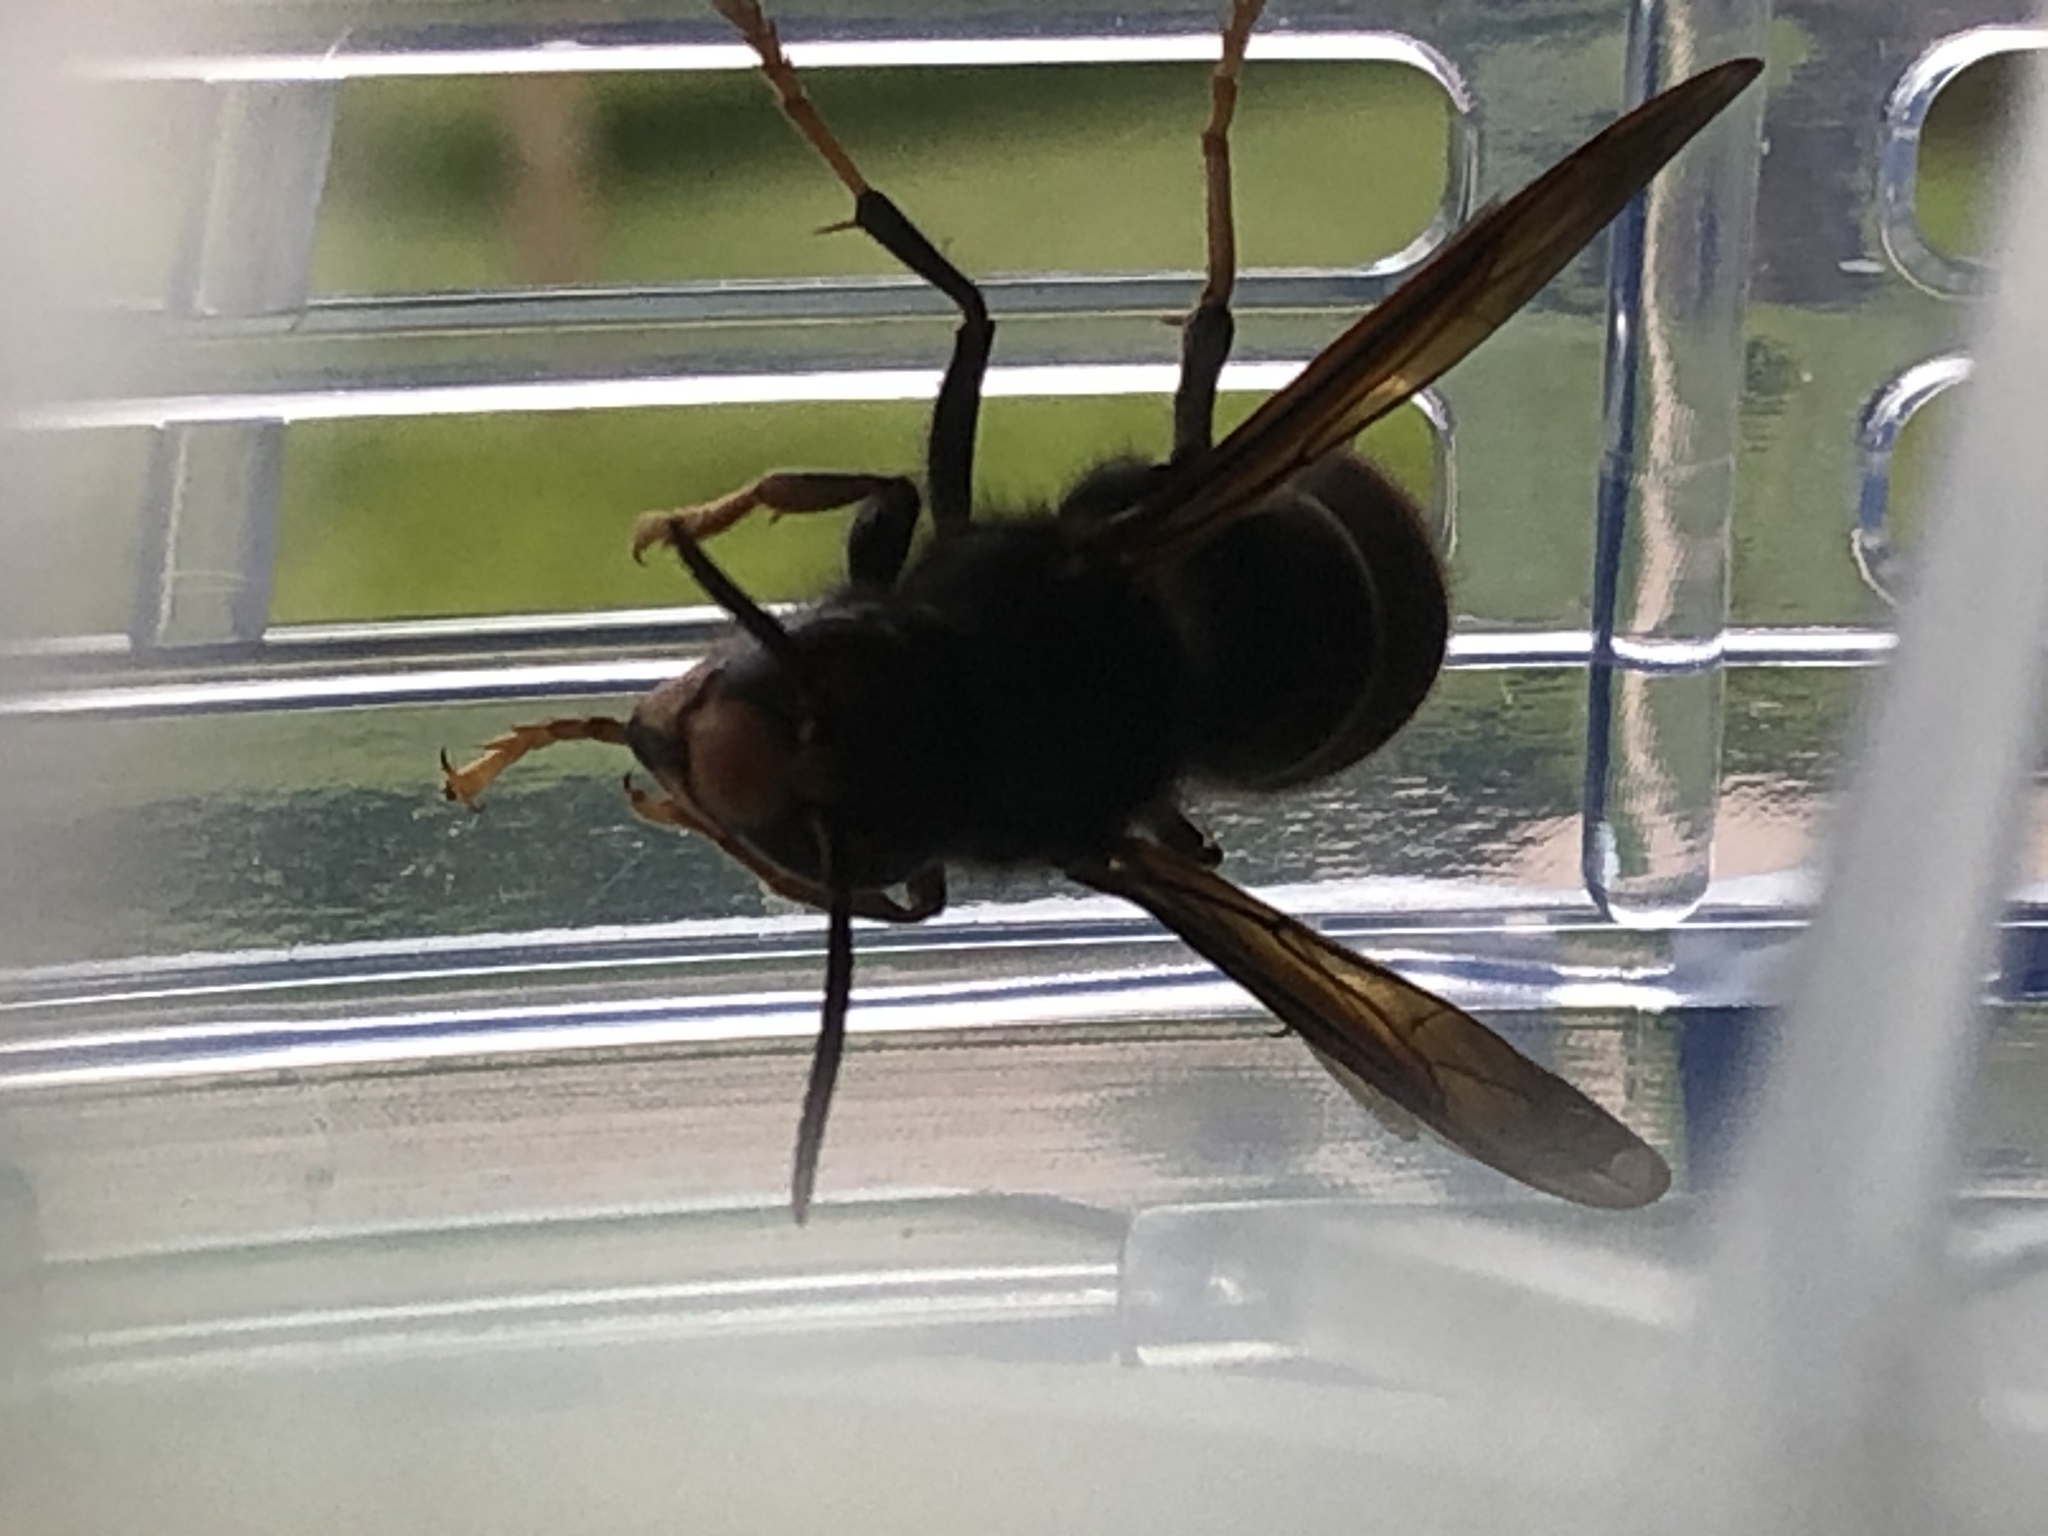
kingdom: Animalia
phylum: Arthropoda
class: Insecta
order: Hymenoptera
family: Vespidae
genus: Vespa
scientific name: Vespa velutina
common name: Asian hornet
